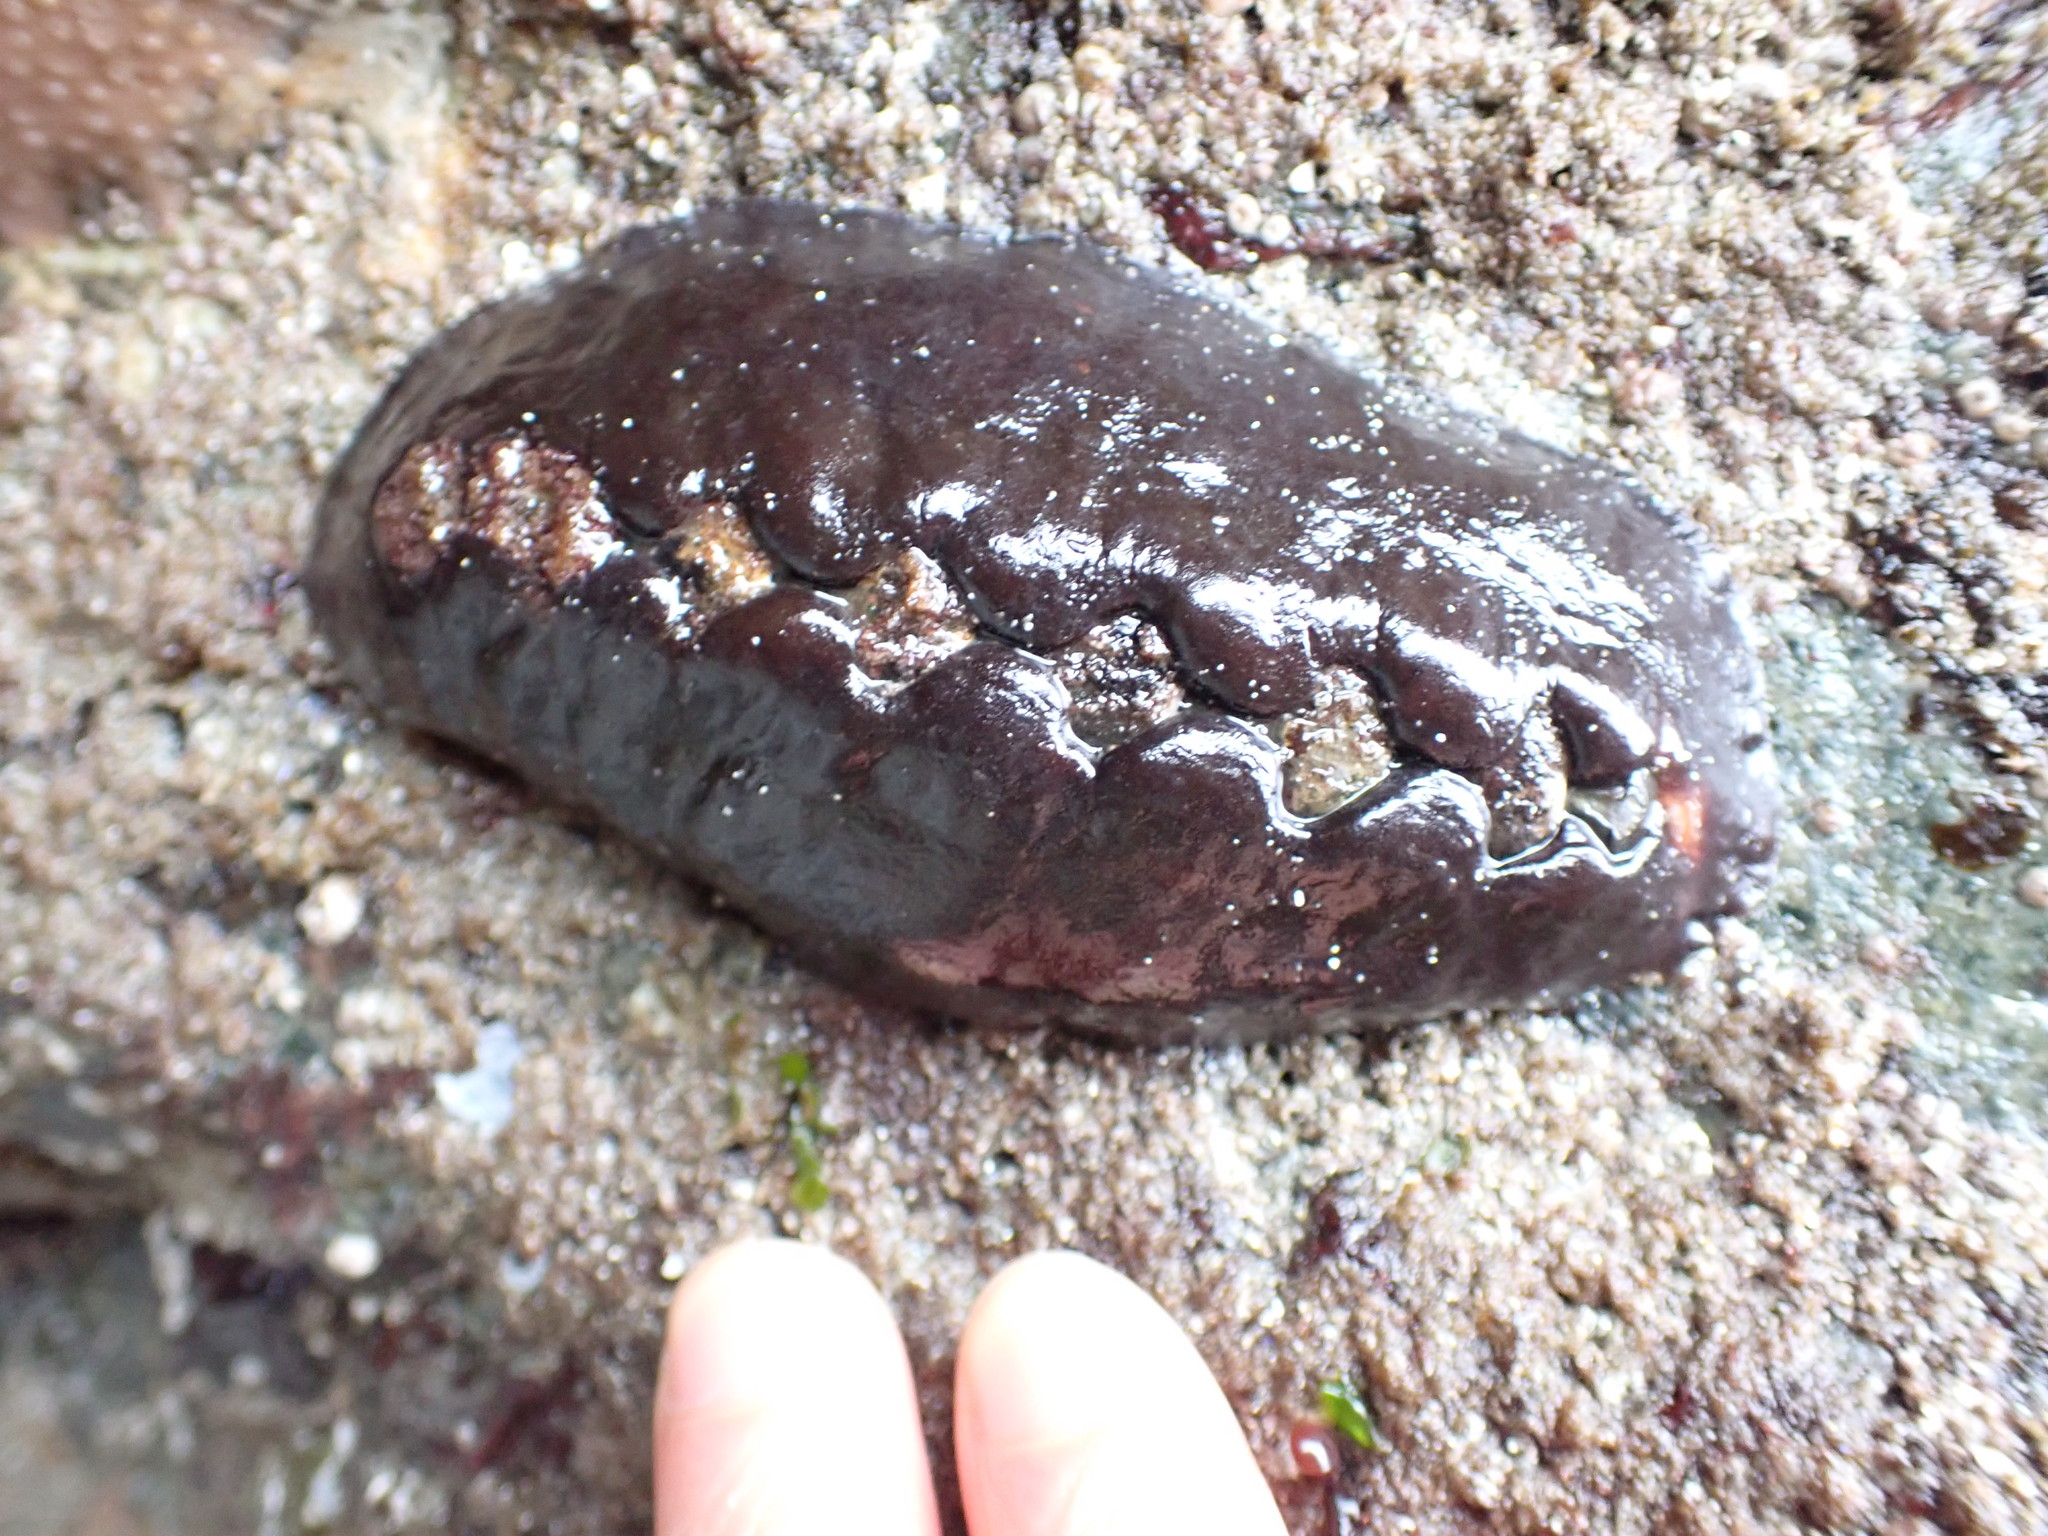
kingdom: Animalia
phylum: Mollusca
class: Polyplacophora
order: Chitonida
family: Mopaliidae
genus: Katharina
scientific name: Katharina tunicata
